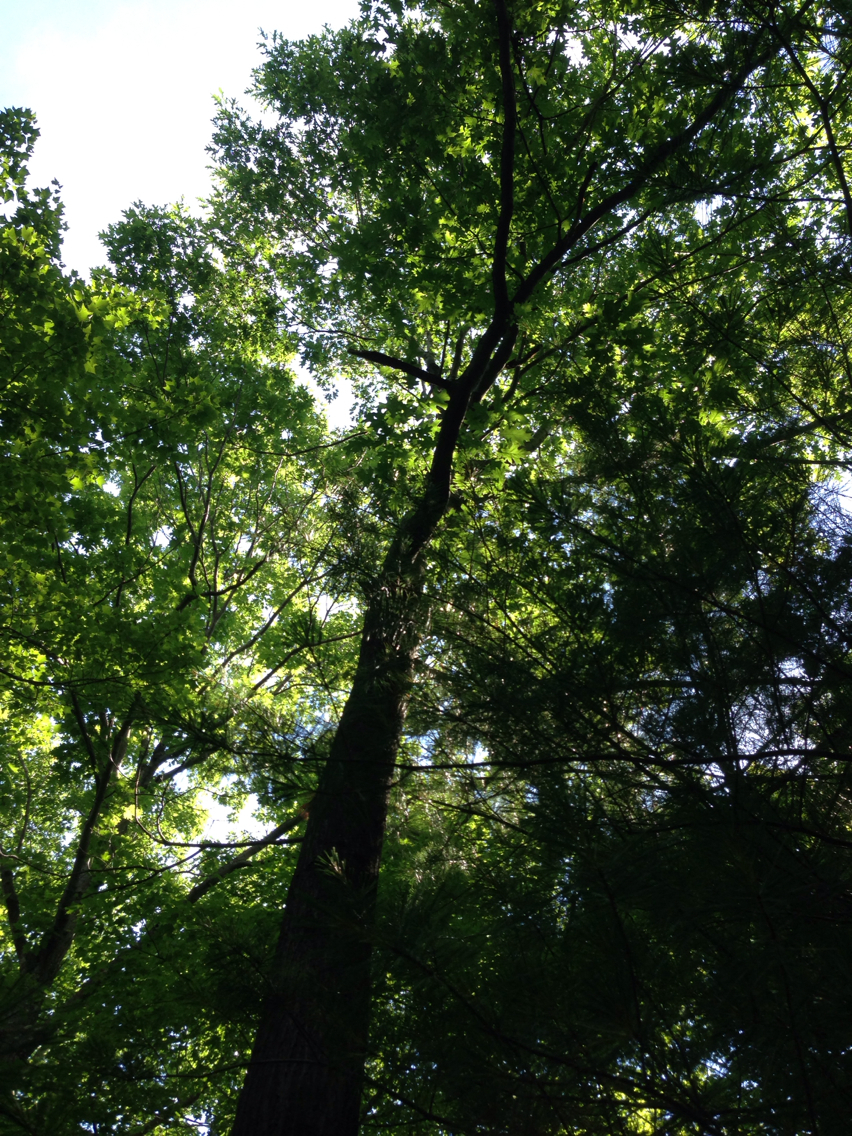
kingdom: Plantae
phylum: Tracheophyta
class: Magnoliopsida
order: Fagales
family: Fagaceae
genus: Quercus
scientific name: Quercus rubra
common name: Red oak
